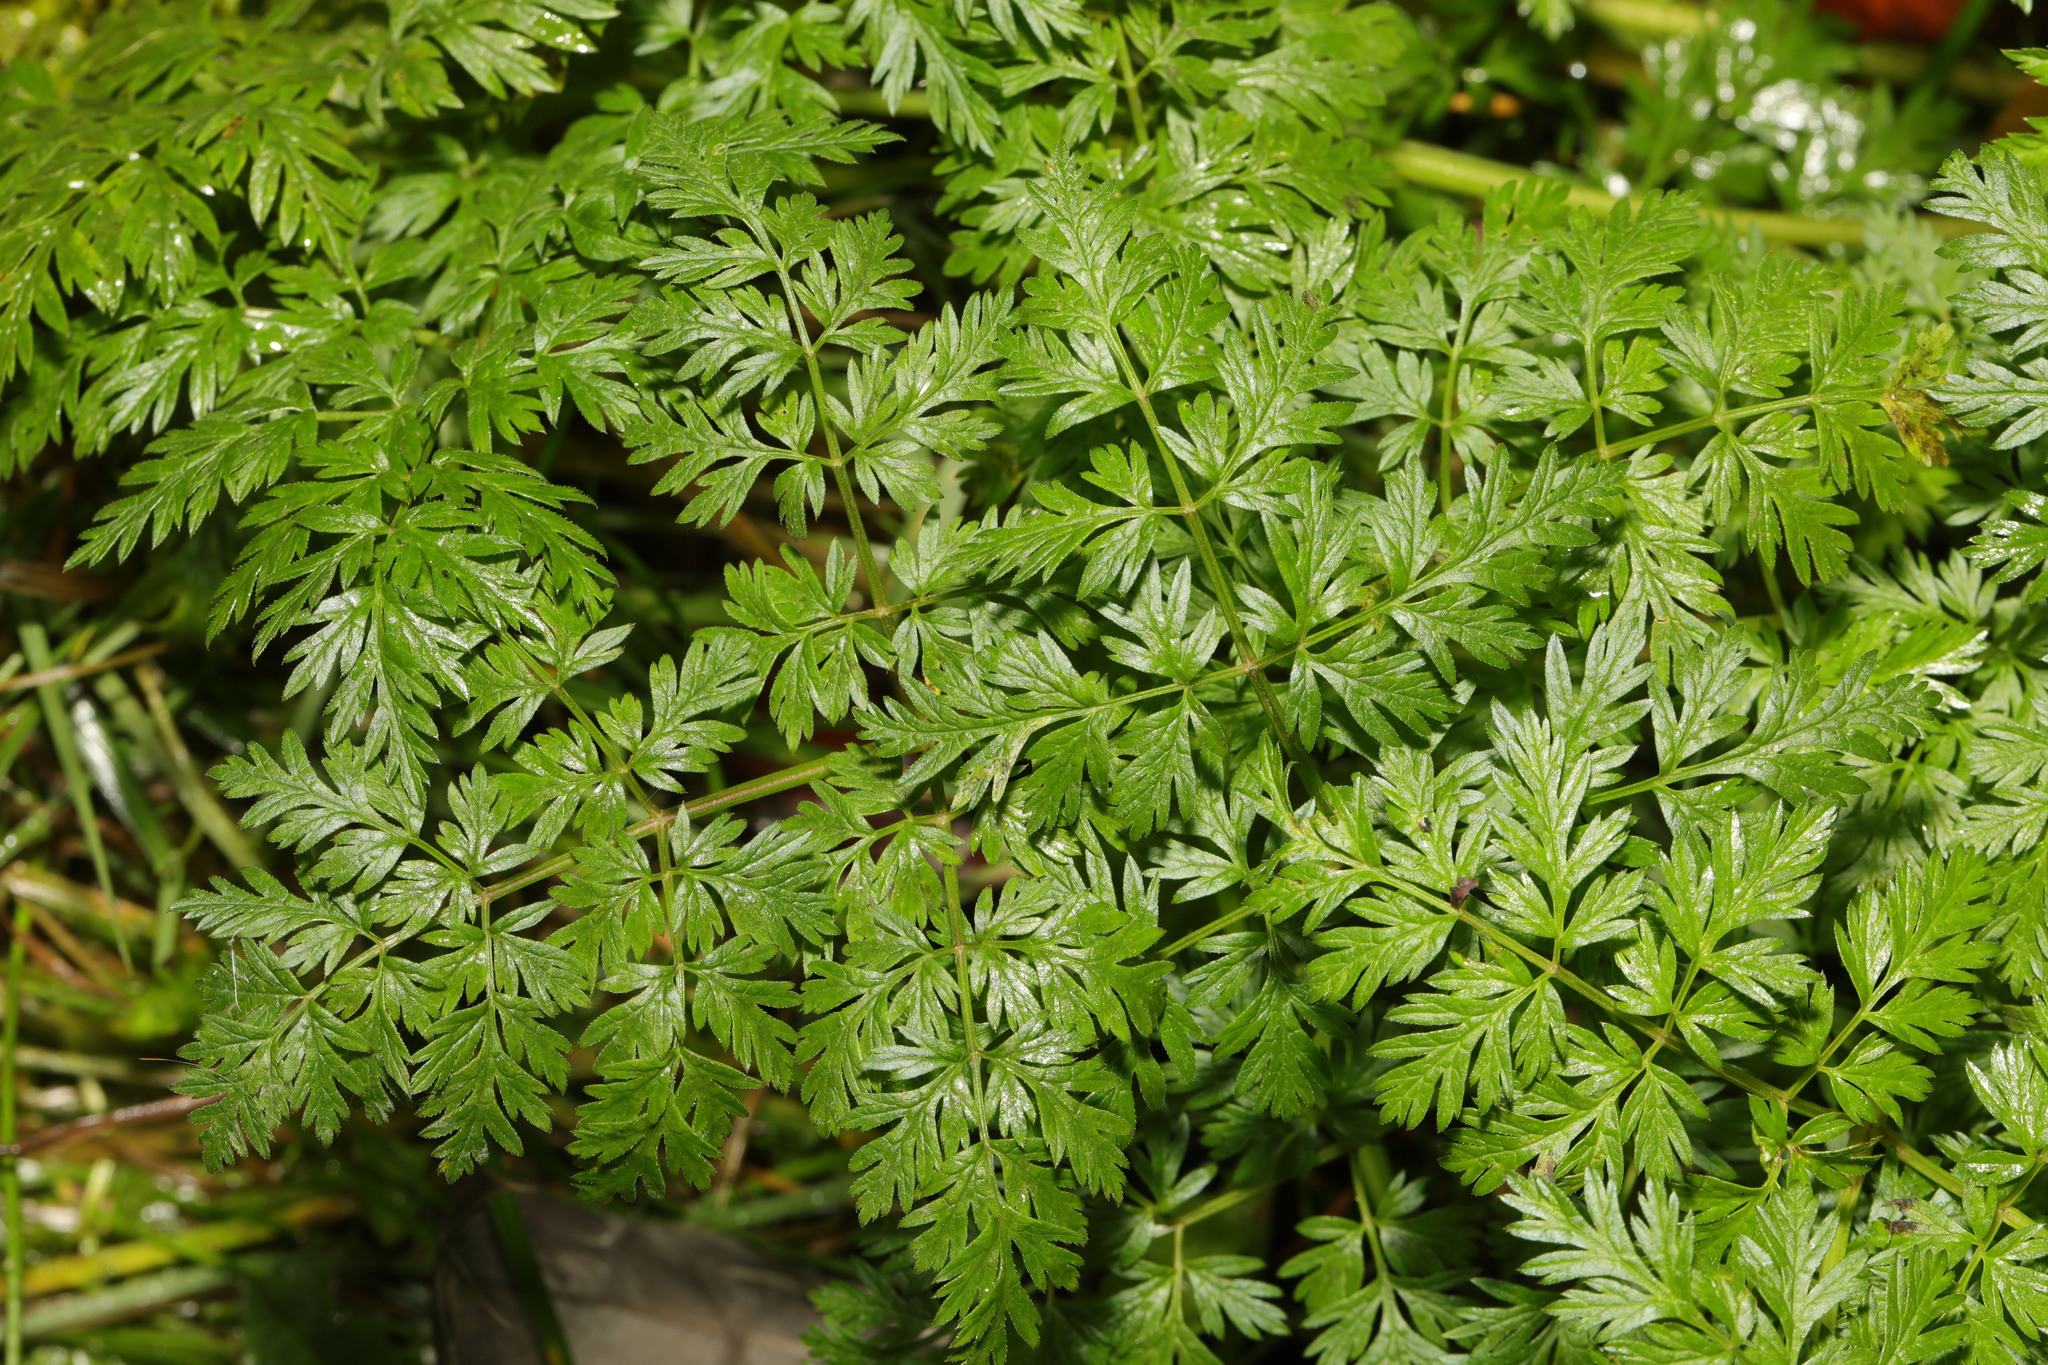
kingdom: Plantae
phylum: Tracheophyta
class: Magnoliopsida
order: Apiales
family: Apiaceae
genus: Anthriscus
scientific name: Anthriscus sylvestris
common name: Cow parsley
